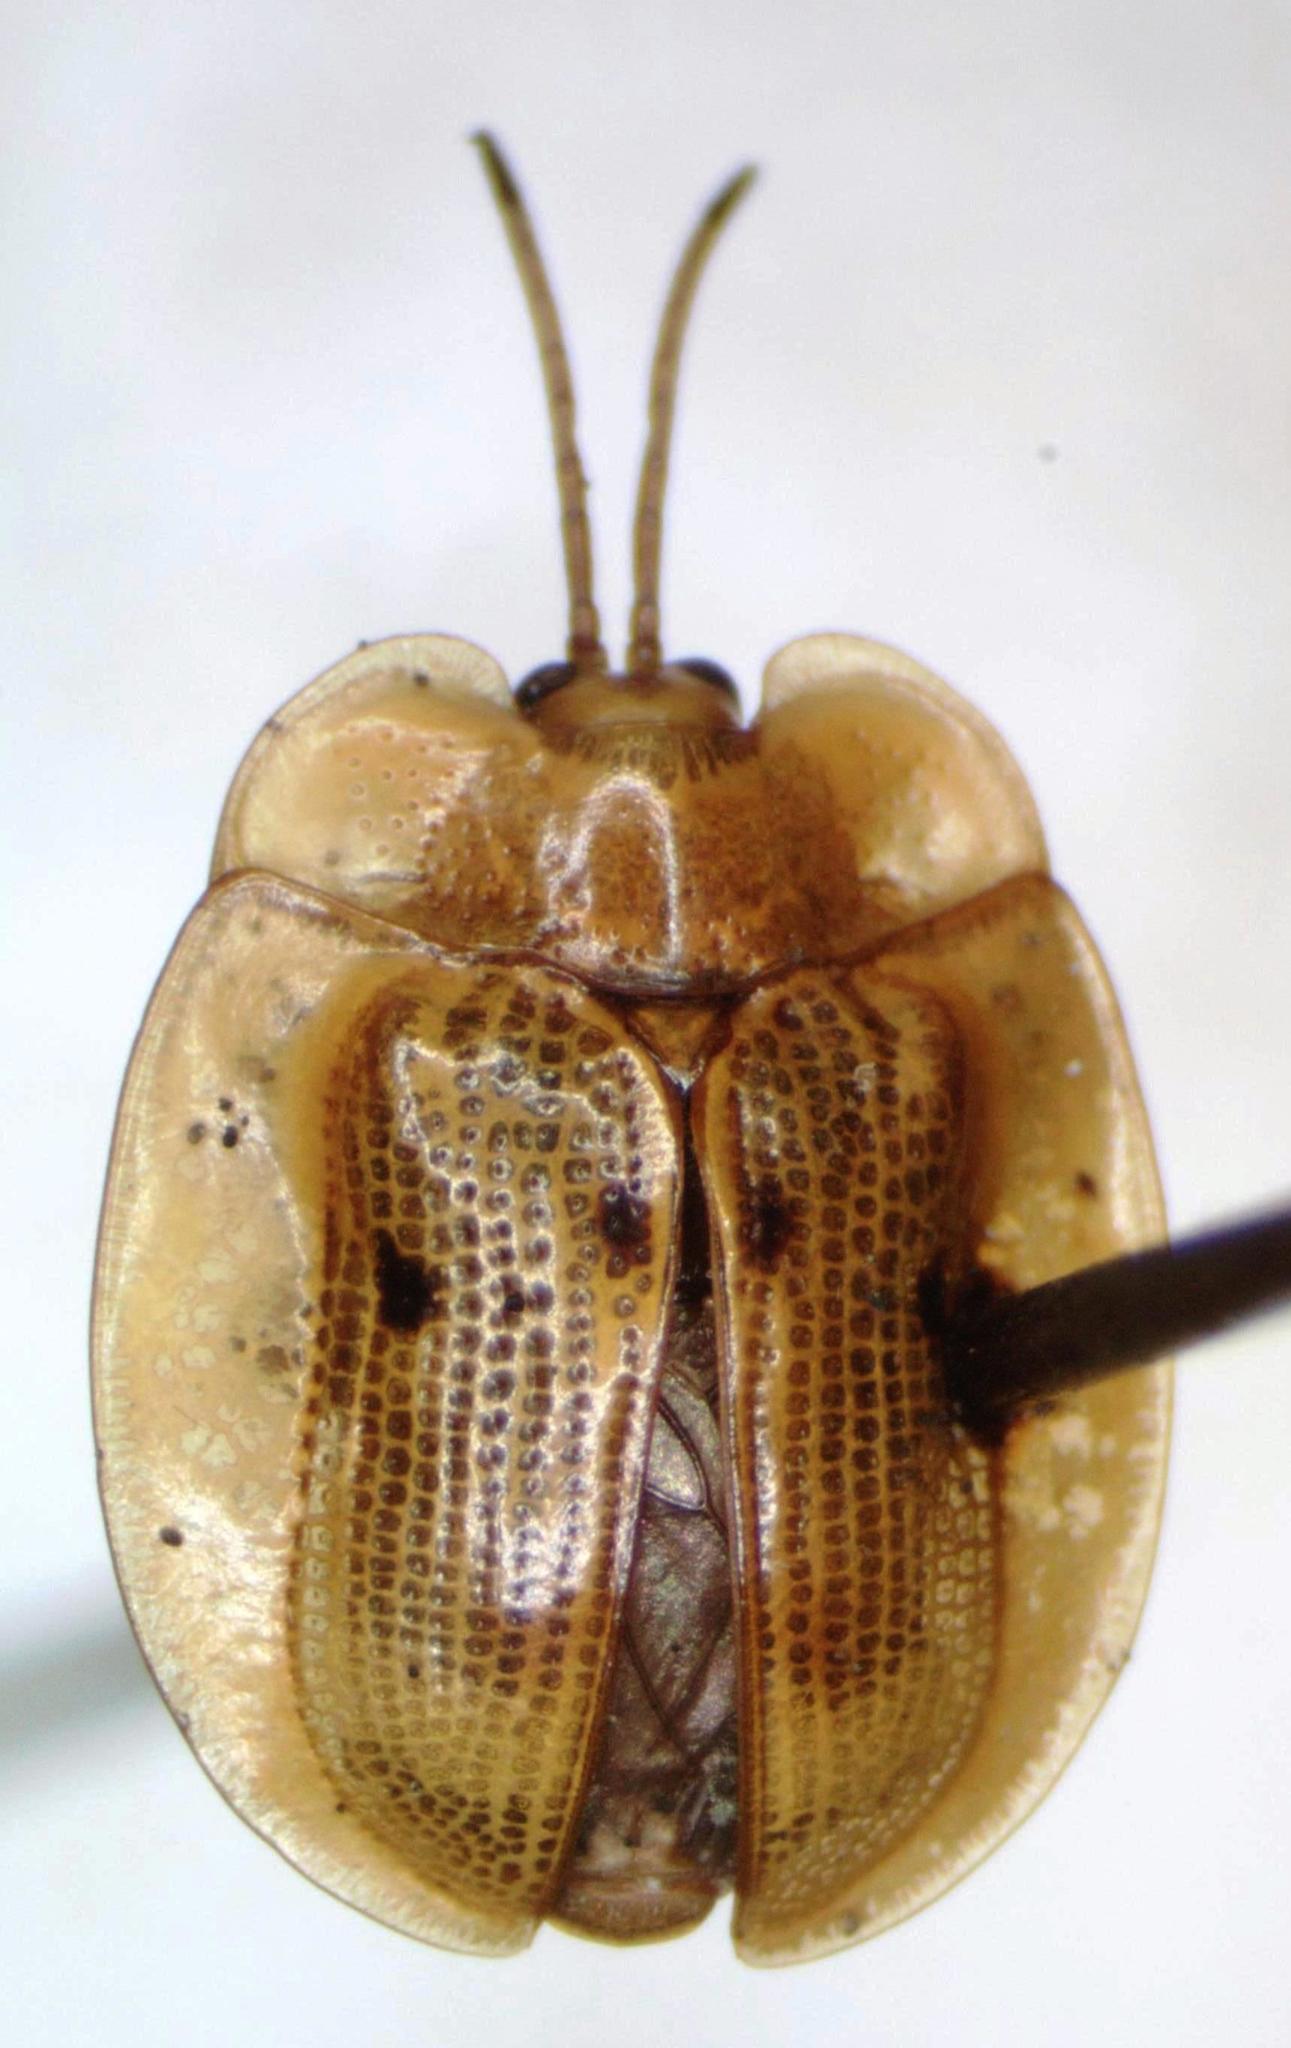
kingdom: Animalia
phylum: Arthropoda
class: Insecta
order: Coleoptera
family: Chrysomelidae
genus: Aslamidium
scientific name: Aslamidium impurum
